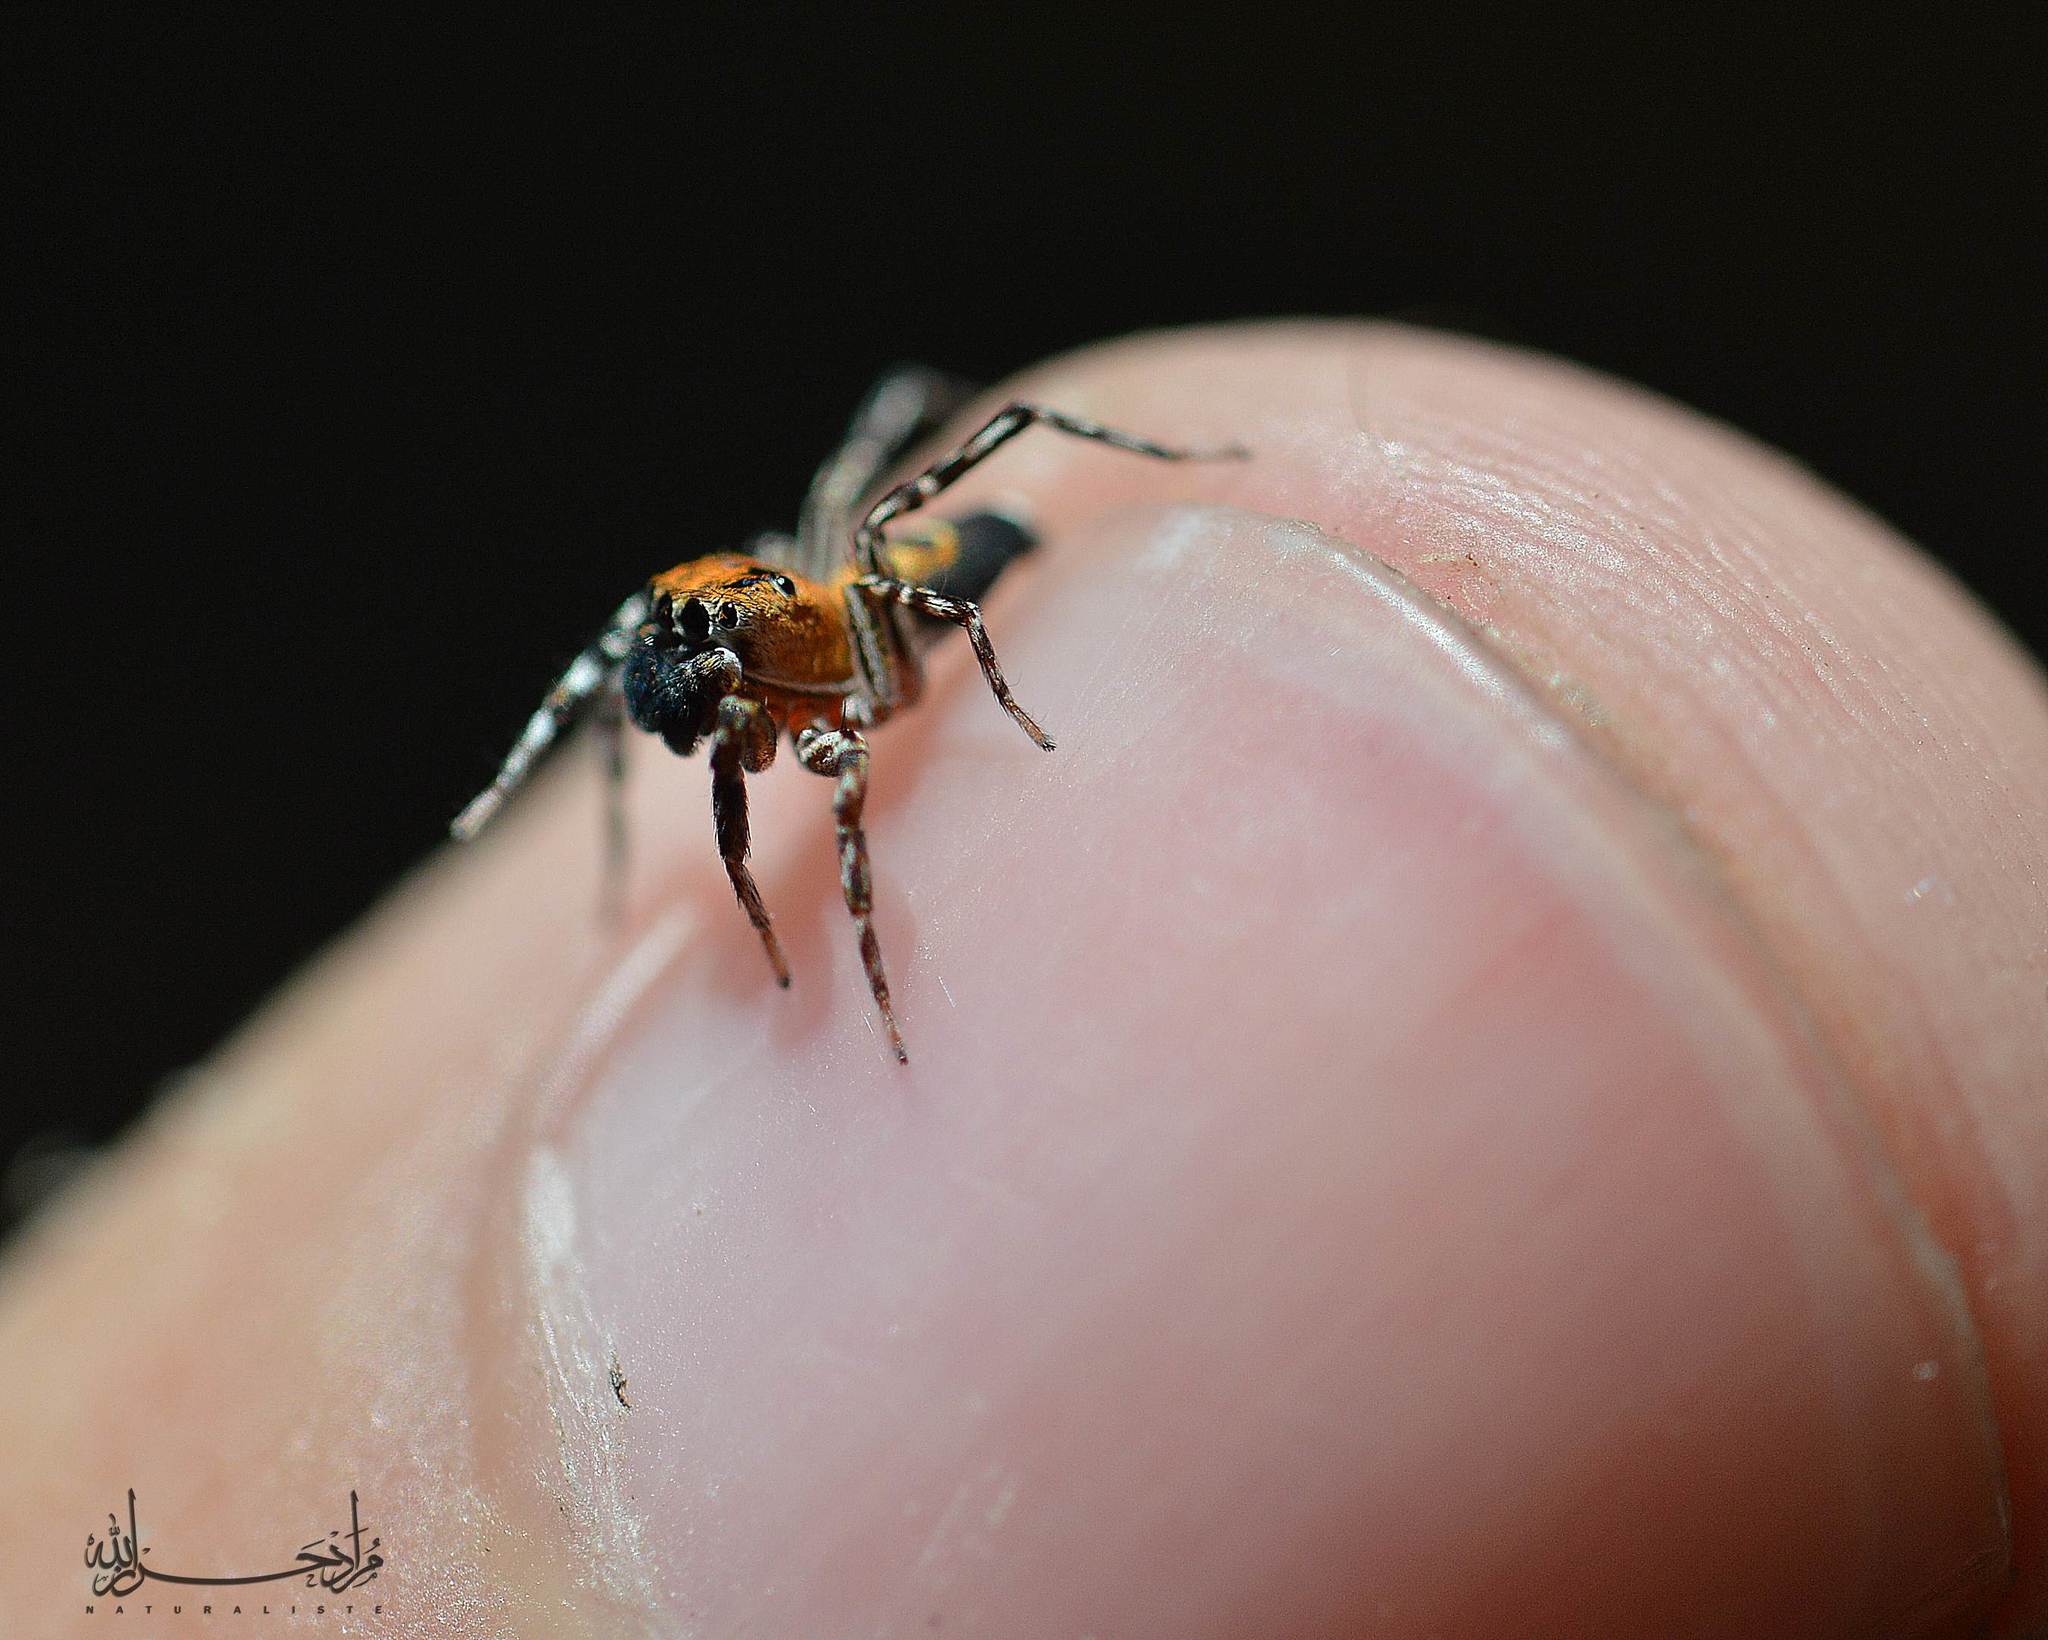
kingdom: Animalia
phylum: Arthropoda
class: Arachnida
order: Araneae
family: Salticidae
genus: Cyrba
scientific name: Cyrba algerina
